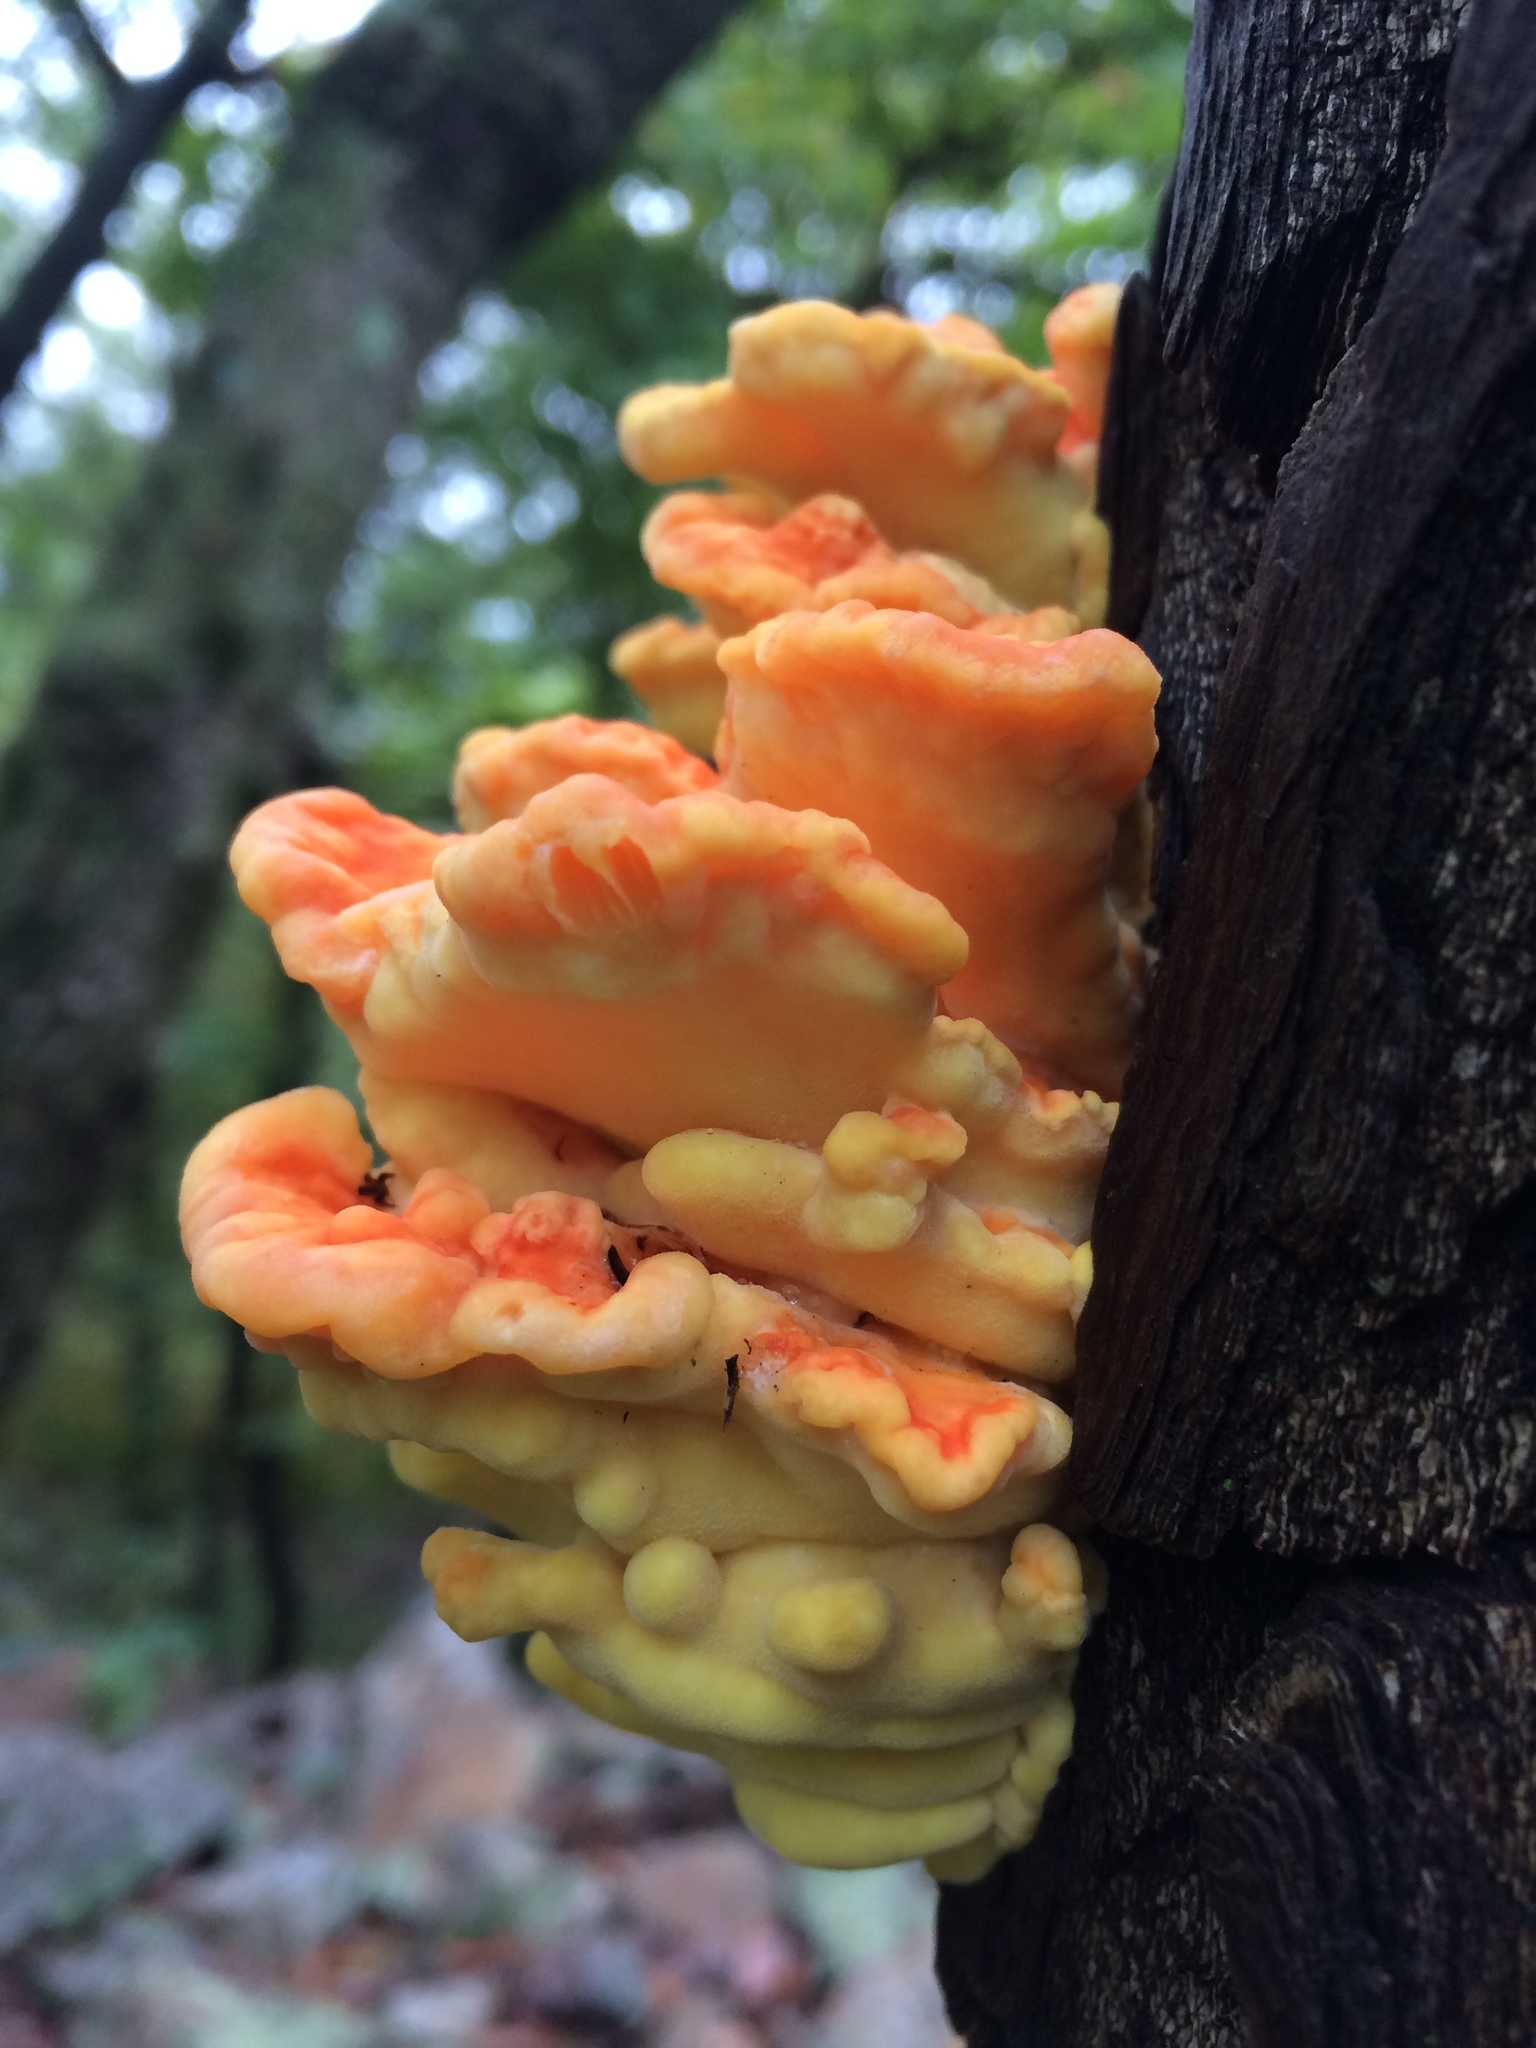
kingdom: Fungi
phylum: Basidiomycota
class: Agaricomycetes
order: Polyporales
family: Laetiporaceae
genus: Laetiporus
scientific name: Laetiporus sulphureus
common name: Chicken of the woods
